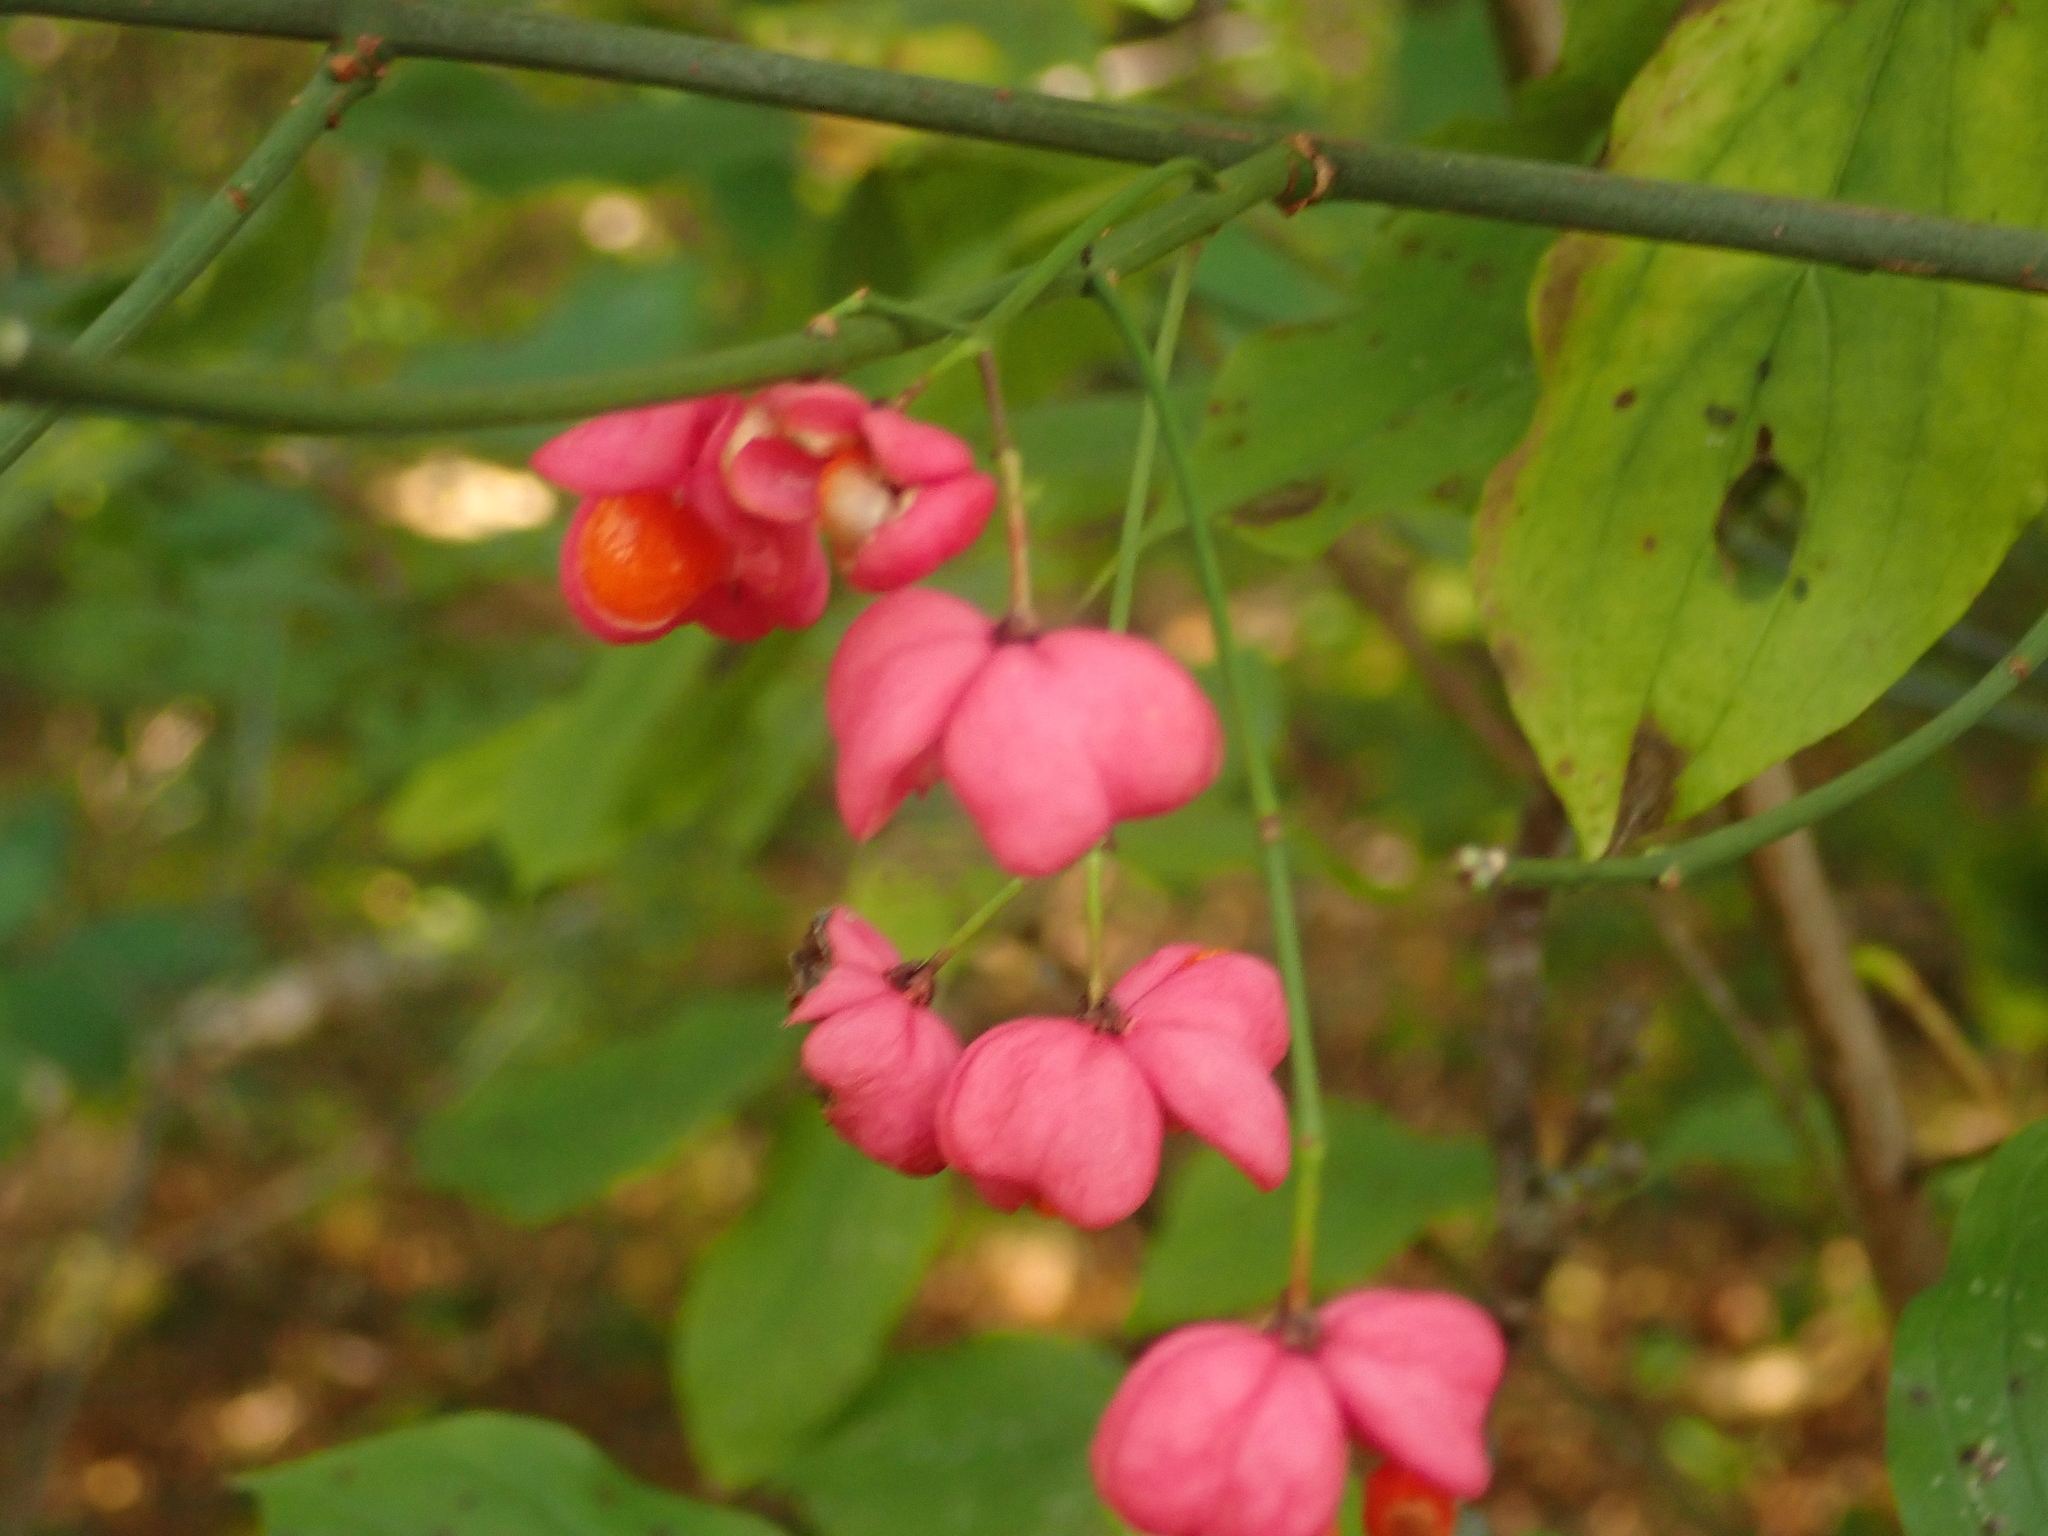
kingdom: Plantae
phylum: Tracheophyta
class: Magnoliopsida
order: Celastrales
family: Celastraceae
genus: Euonymus
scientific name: Euonymus europaeus
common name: Spindle
